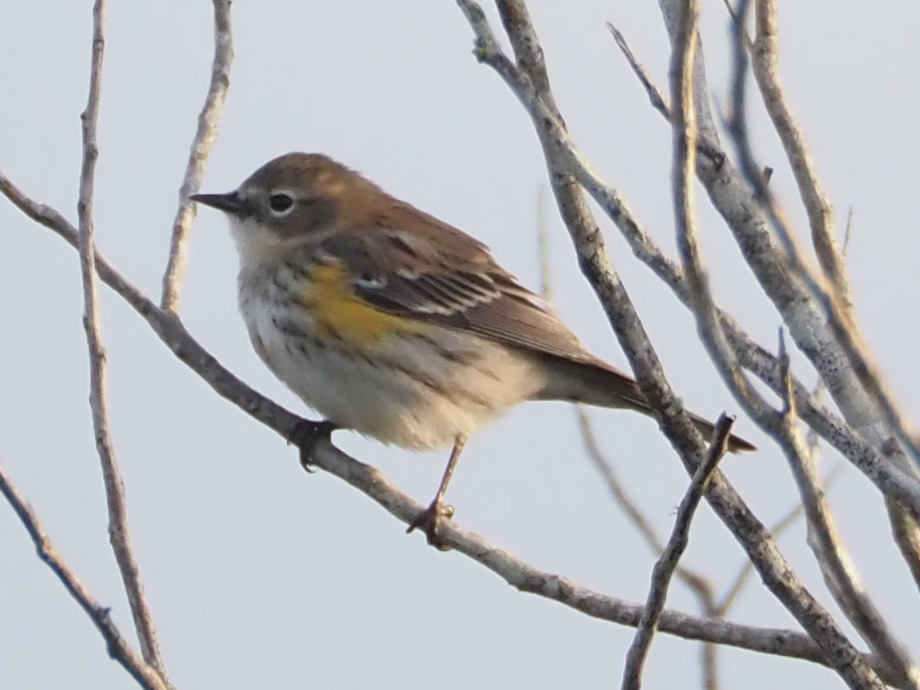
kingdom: Animalia
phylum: Chordata
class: Aves
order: Passeriformes
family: Parulidae
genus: Setophaga
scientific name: Setophaga coronata
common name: Myrtle warbler
